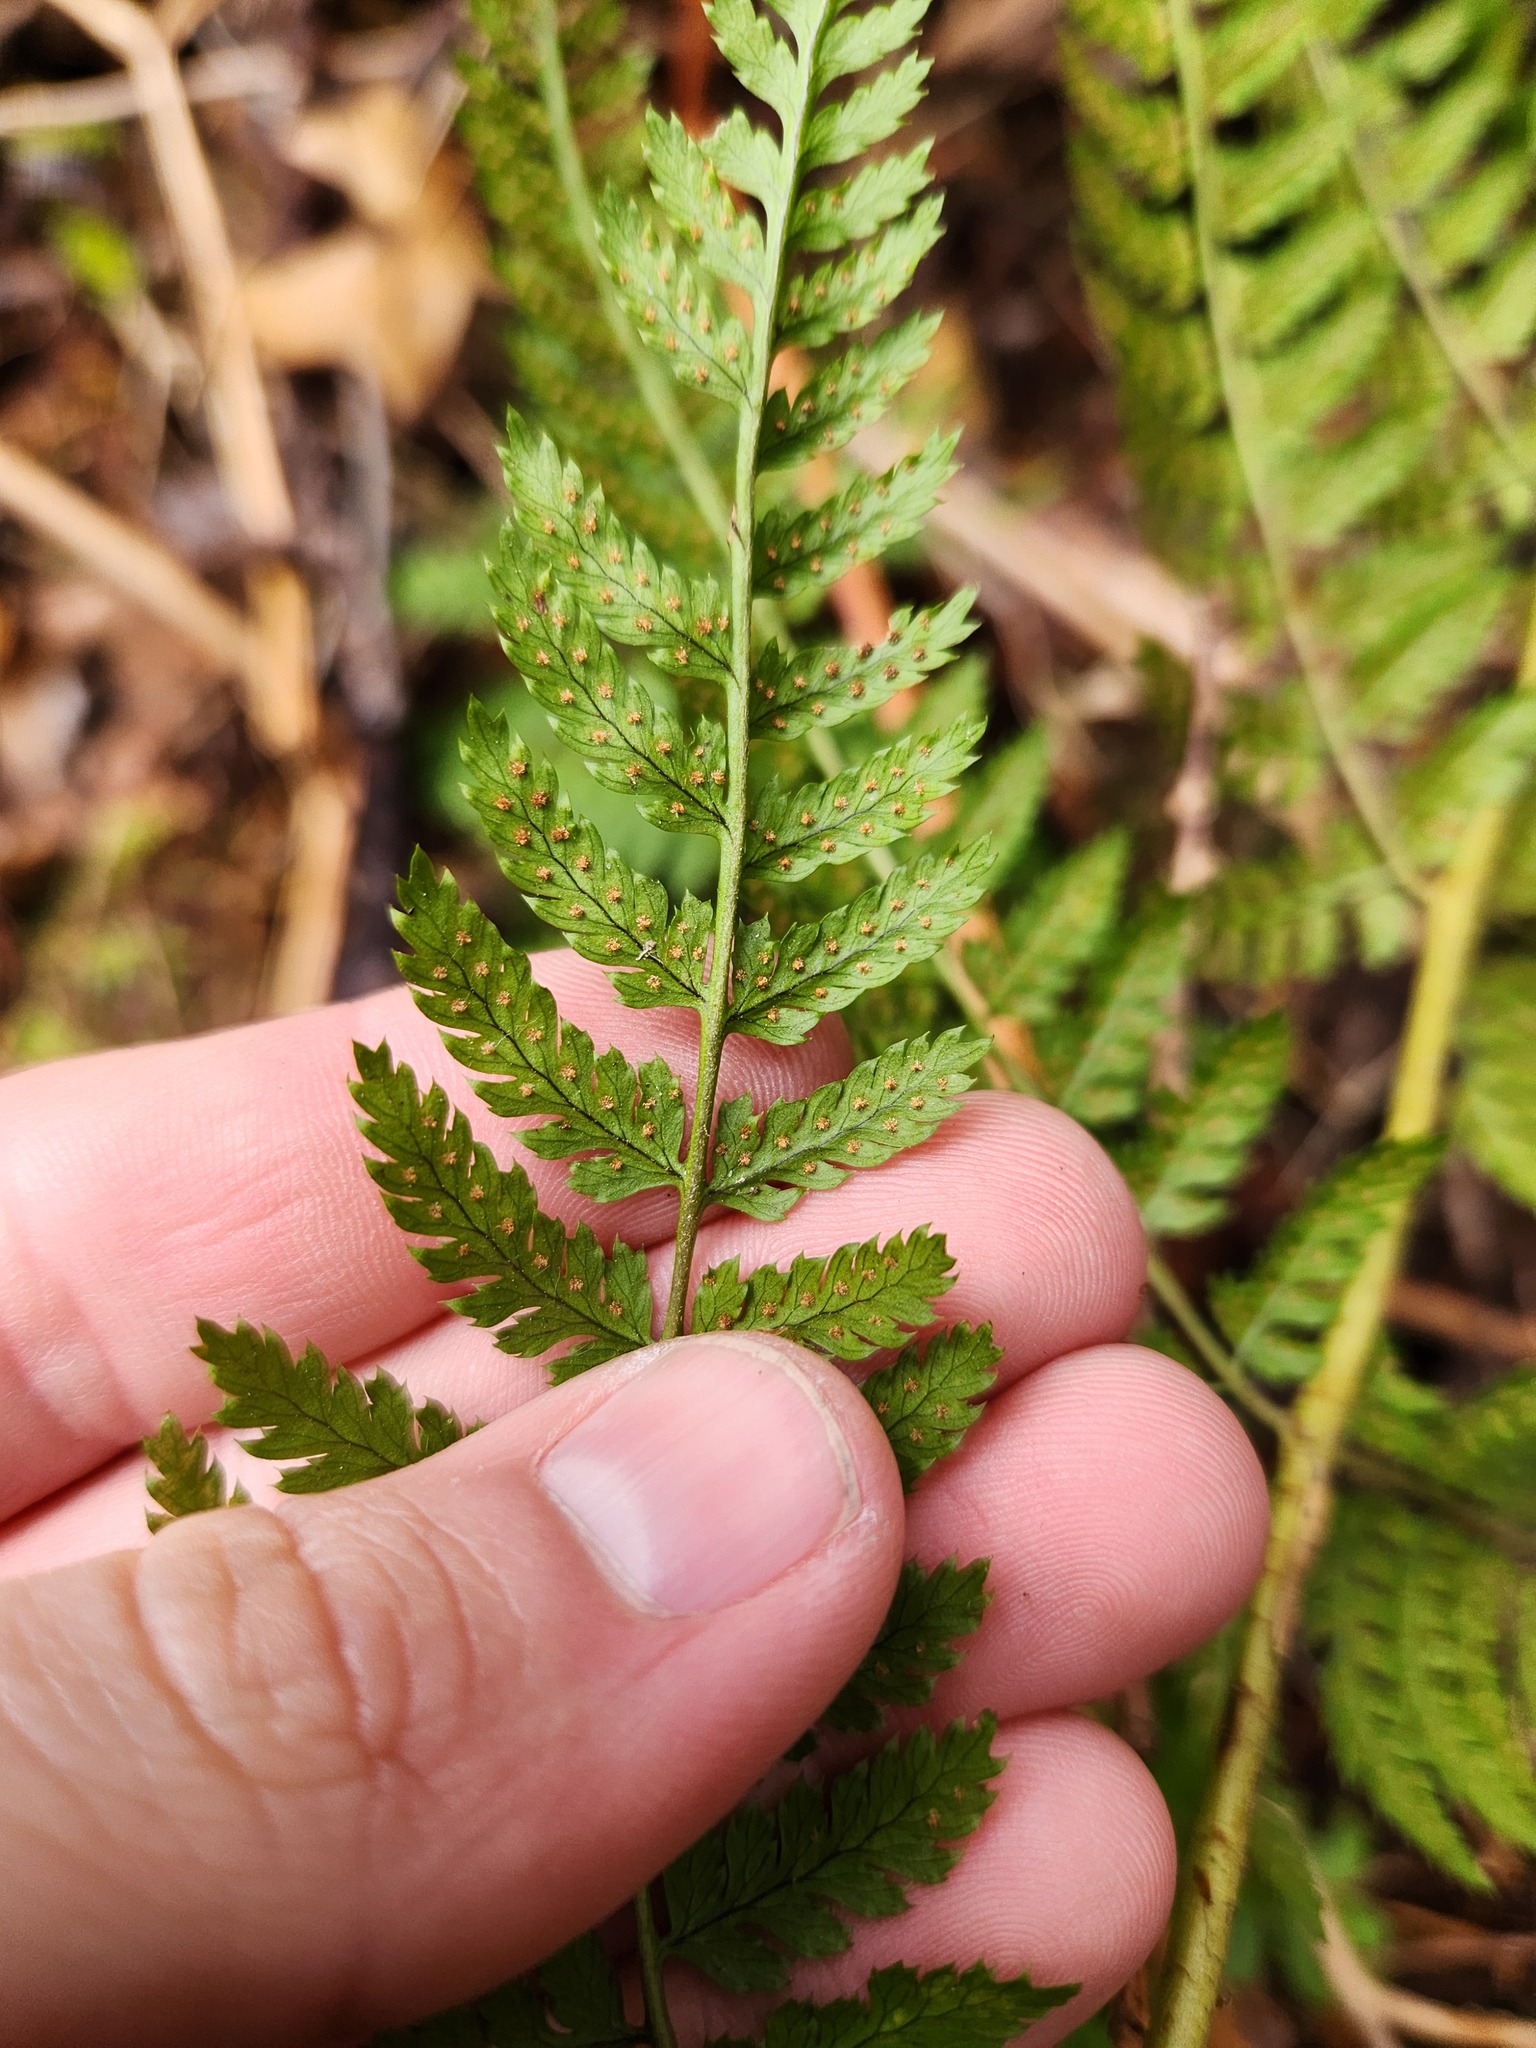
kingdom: Plantae
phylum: Tracheophyta
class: Polypodiopsida
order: Polypodiales
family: Dryopteridaceae
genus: Dryopteris
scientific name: Dryopteris carthusiana
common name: Narrow buckler-fern
